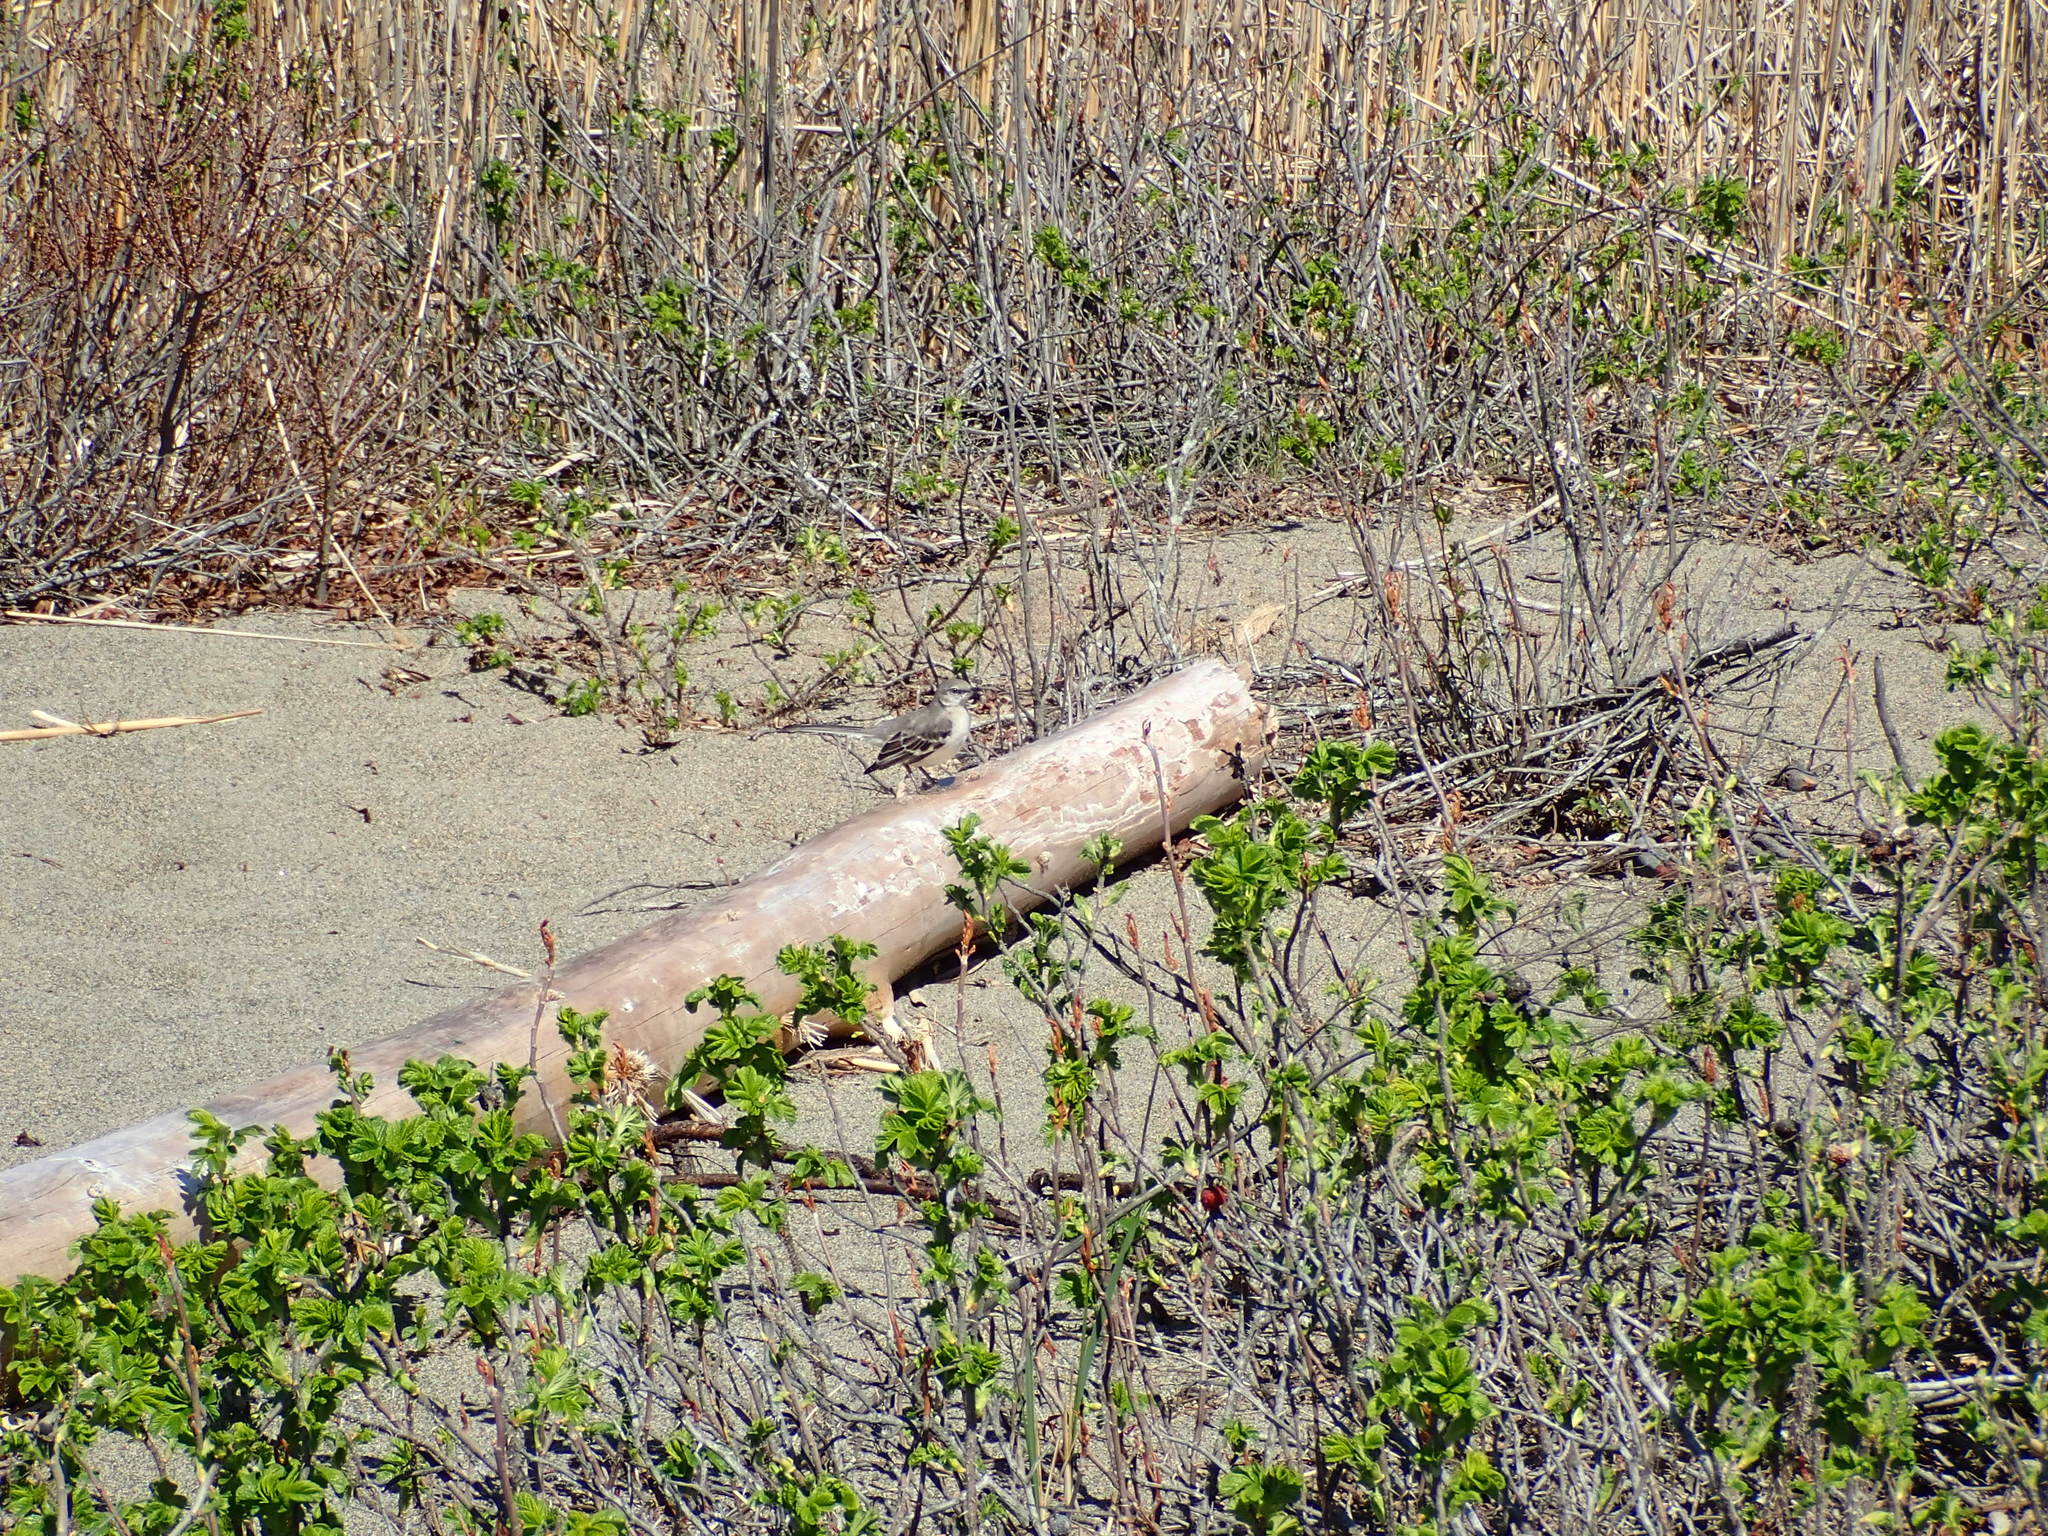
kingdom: Animalia
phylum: Chordata
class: Aves
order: Passeriformes
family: Mimidae
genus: Mimus
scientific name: Mimus polyglottos
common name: Northern mockingbird
